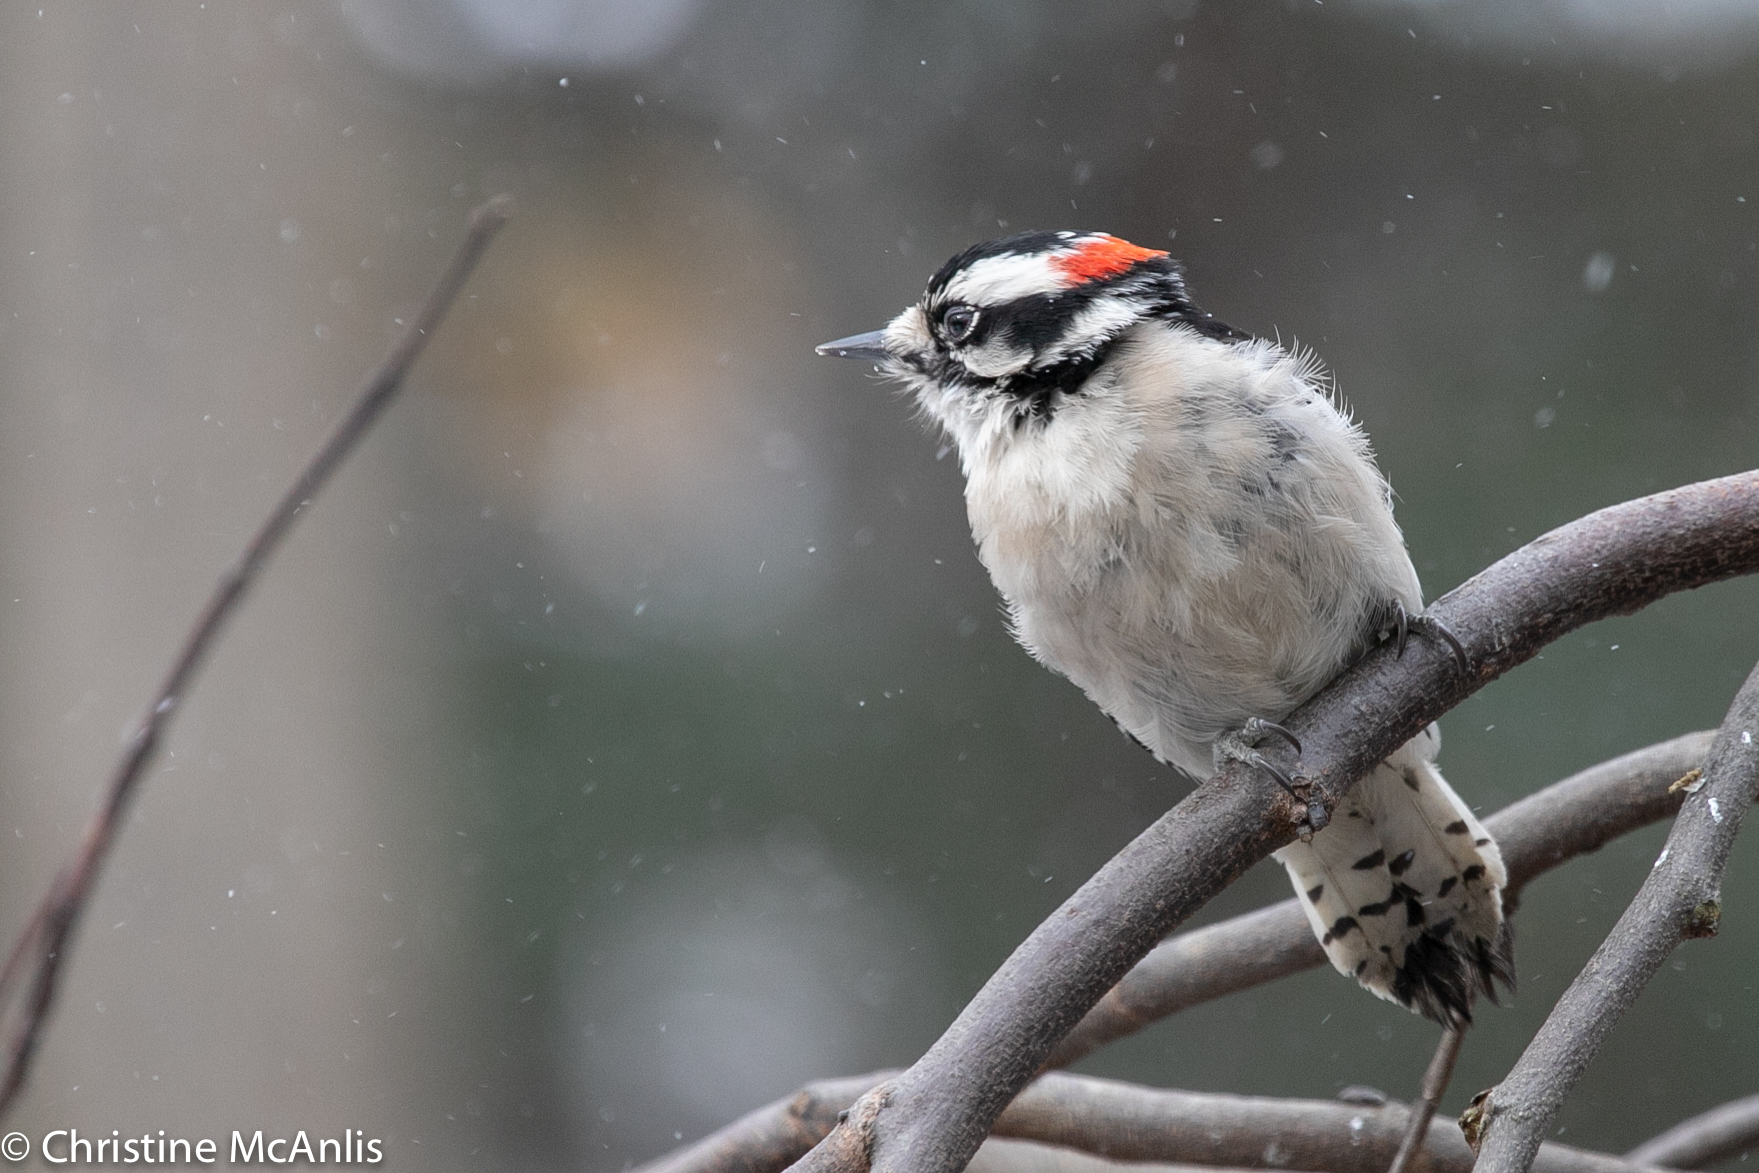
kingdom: Animalia
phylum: Chordata
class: Aves
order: Piciformes
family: Picidae
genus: Dryobates
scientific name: Dryobates pubescens
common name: Downy woodpecker
